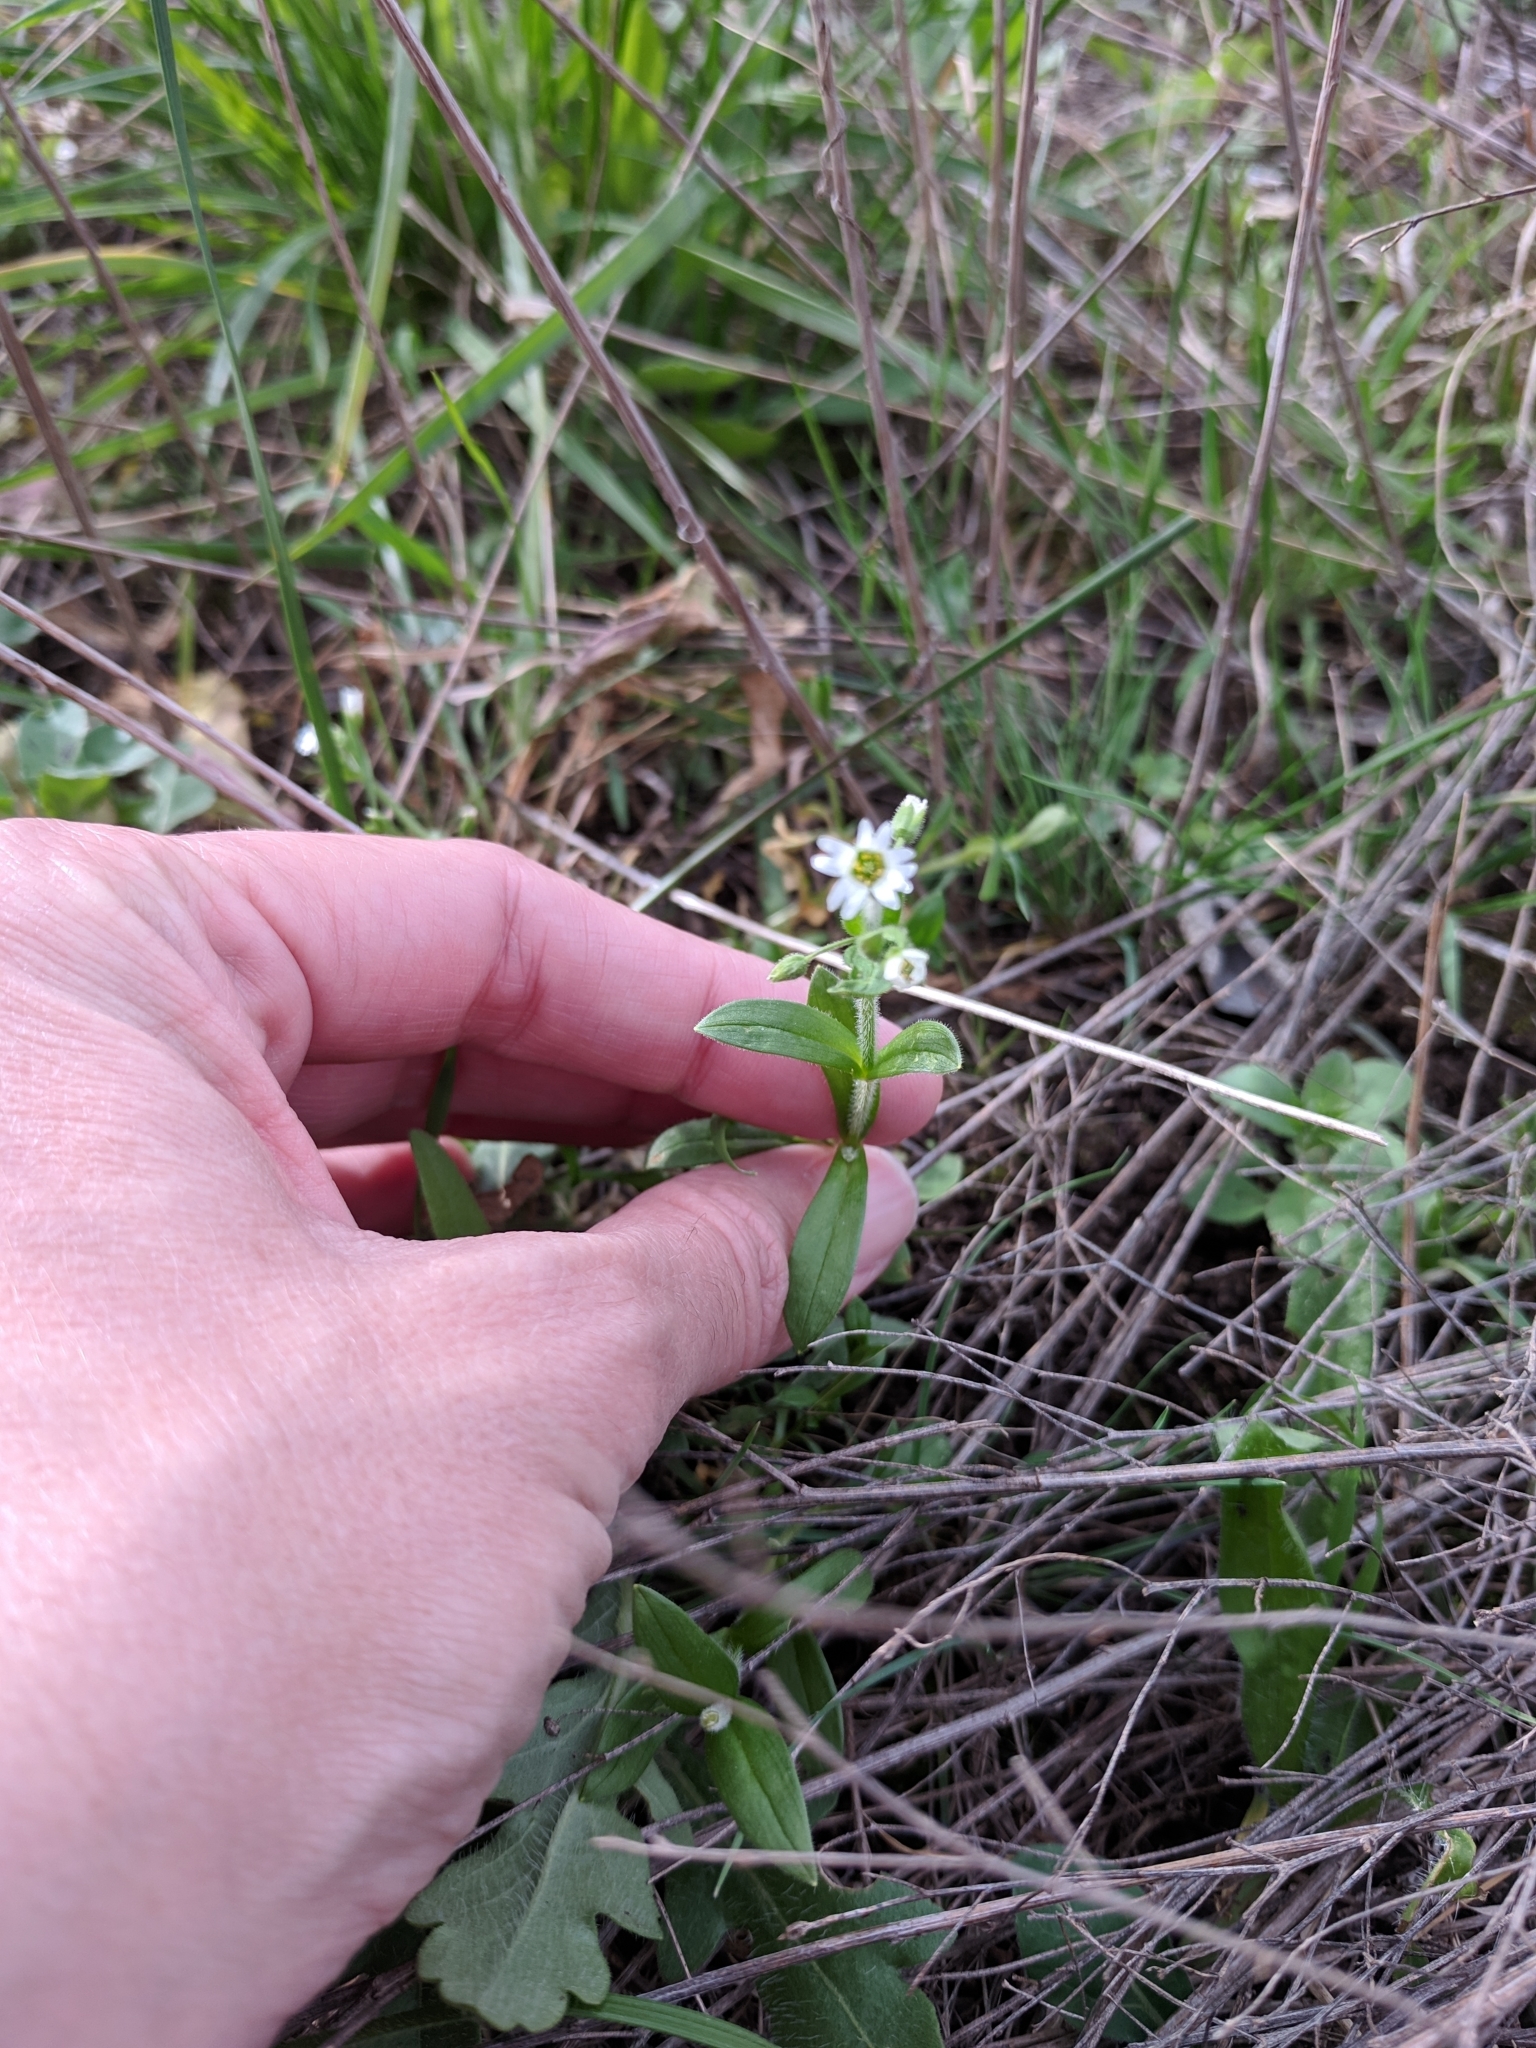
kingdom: Plantae
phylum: Tracheophyta
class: Magnoliopsida
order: Caryophyllales
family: Caryophyllaceae
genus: Cerastium
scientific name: Cerastium brachypodum
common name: Short-pedicelled nodding chickweed
